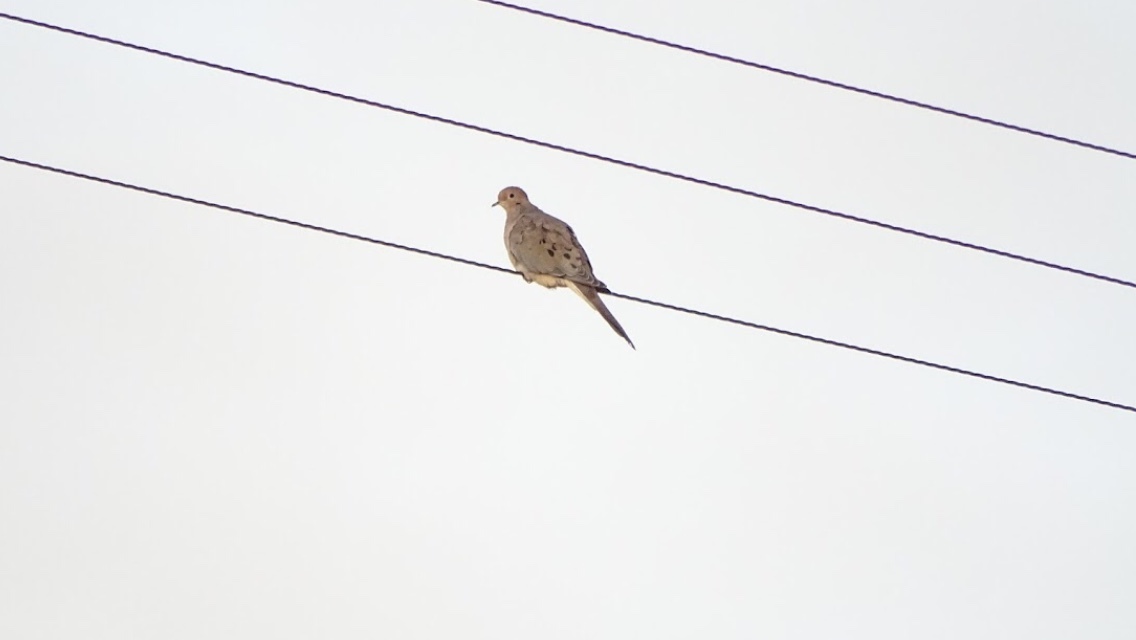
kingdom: Animalia
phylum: Chordata
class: Aves
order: Columbiformes
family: Columbidae
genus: Zenaida
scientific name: Zenaida macroura
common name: Mourning dove
